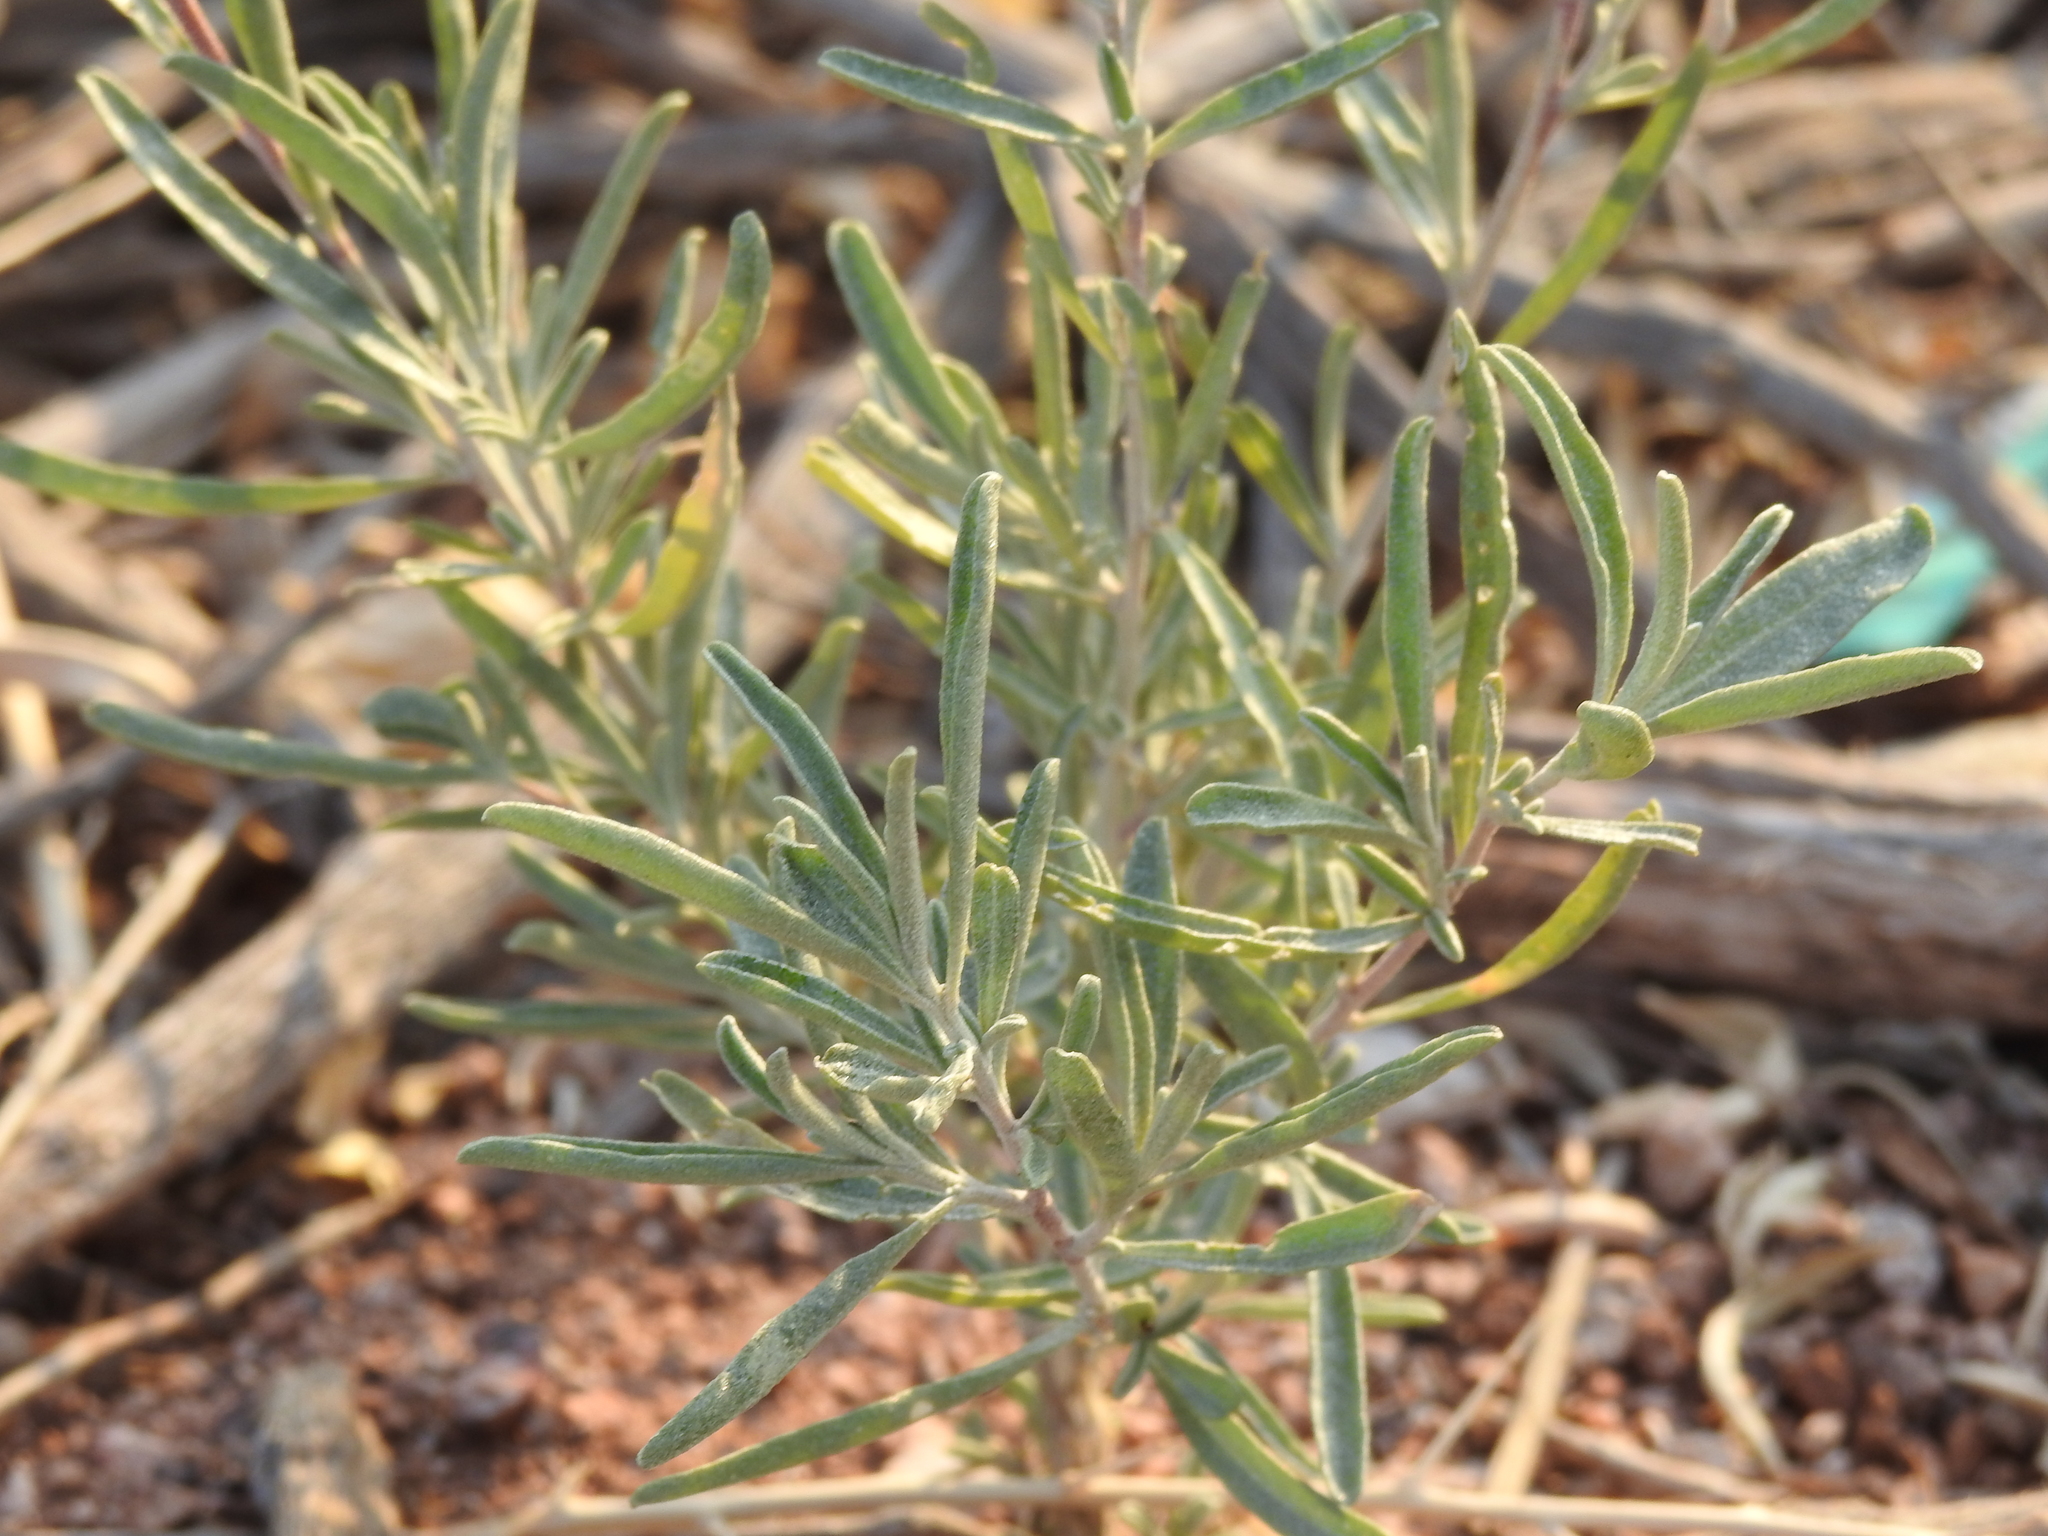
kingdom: Plantae
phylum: Tracheophyta
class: Magnoliopsida
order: Caryophyllales
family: Amaranthaceae
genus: Atriplex
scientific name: Atriplex canescens
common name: Four-wing saltbush
